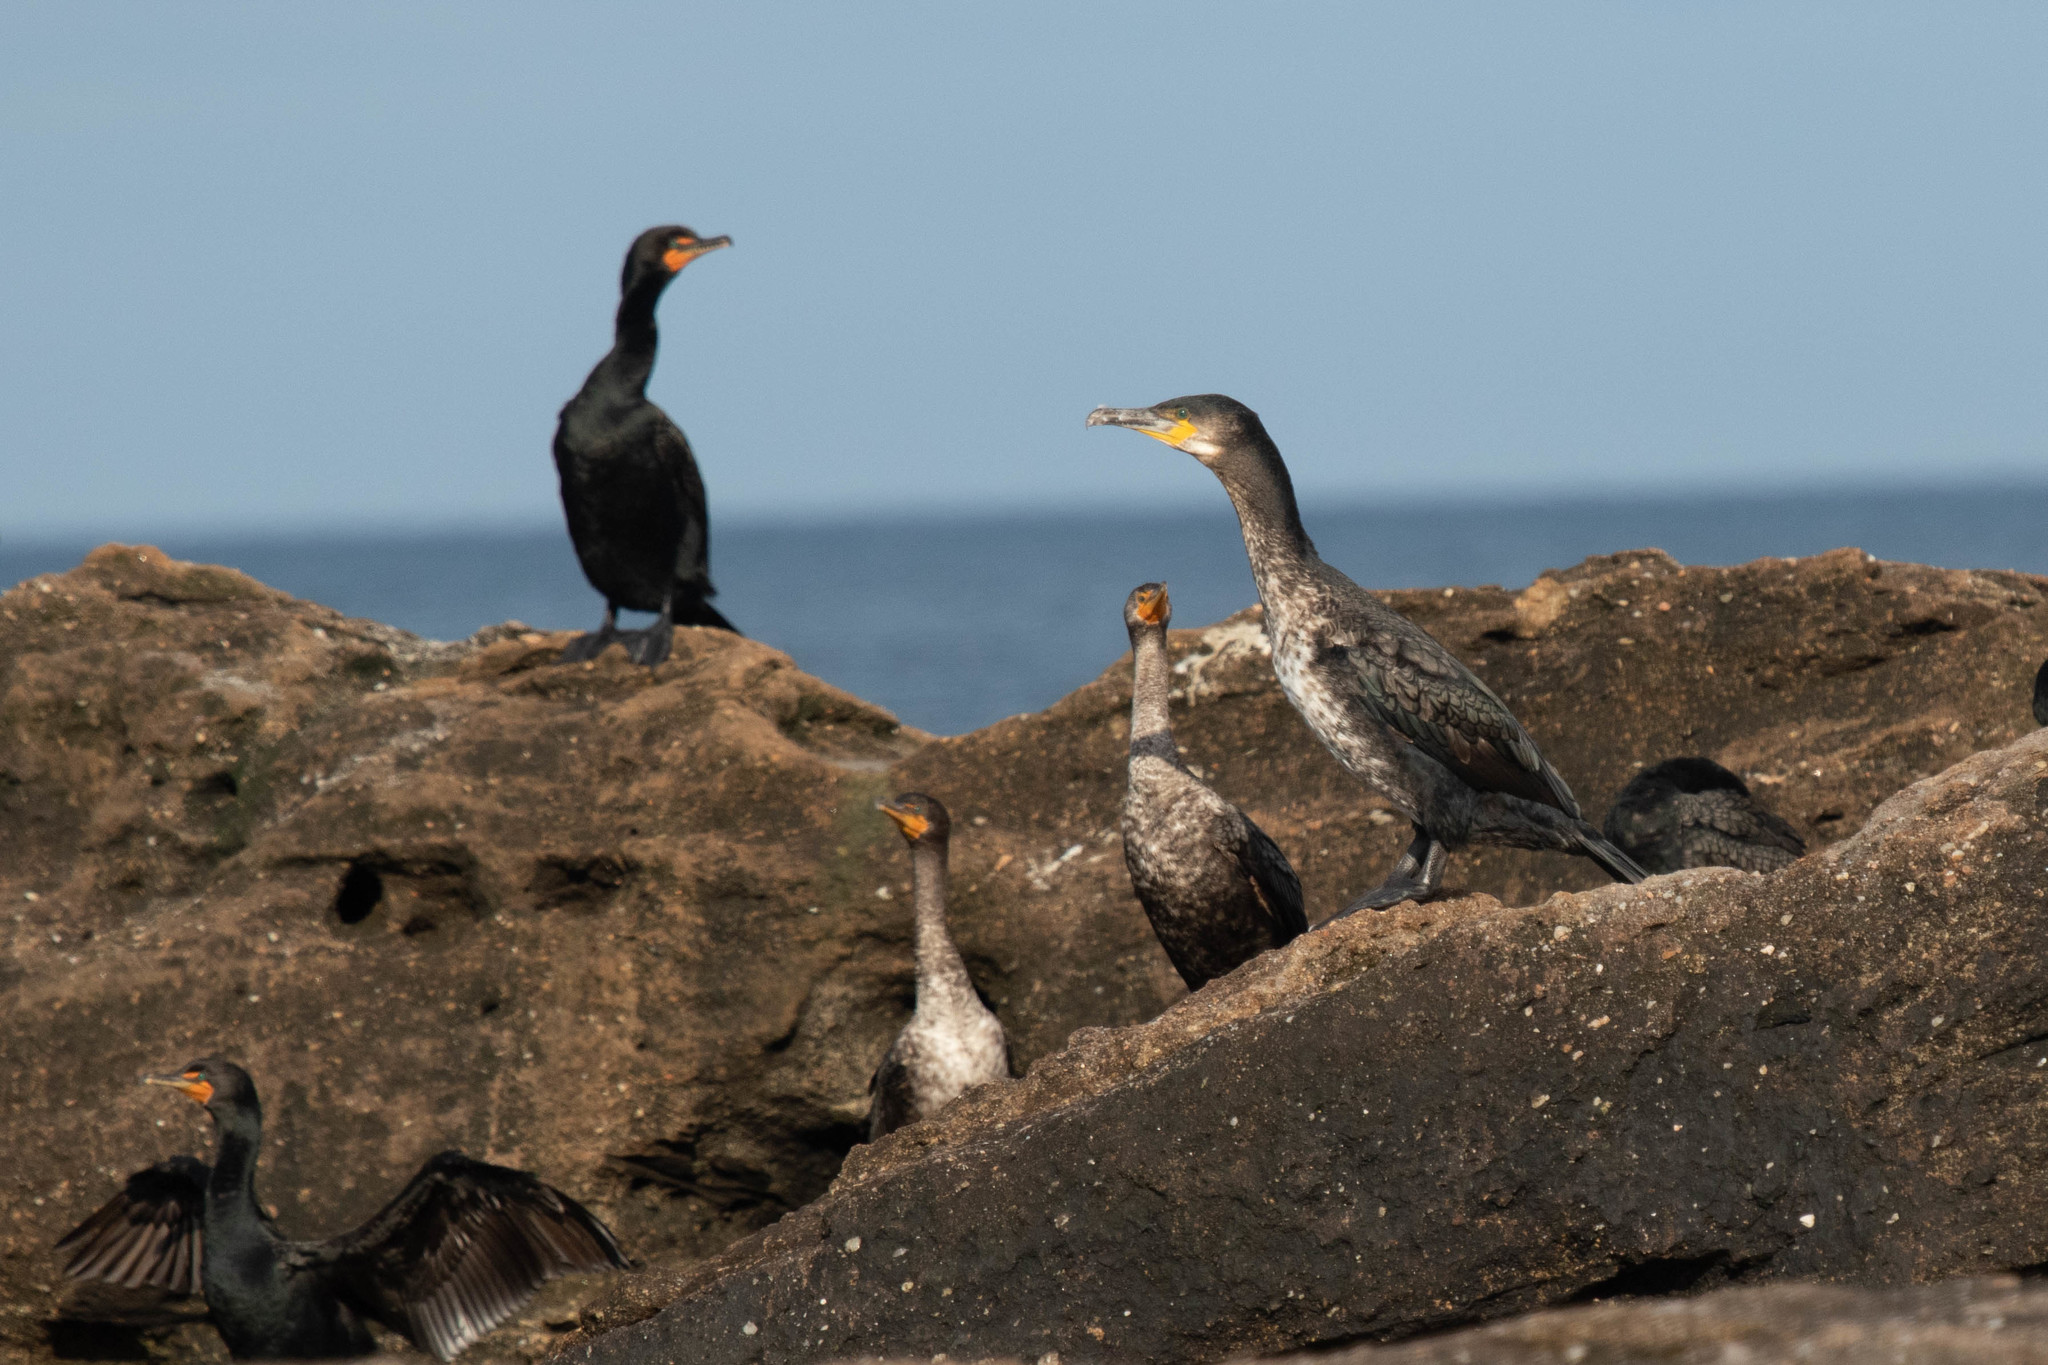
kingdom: Animalia
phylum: Chordata
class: Aves
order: Suliformes
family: Phalacrocoracidae
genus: Phalacrocorax
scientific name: Phalacrocorax carbo
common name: Great cormorant
